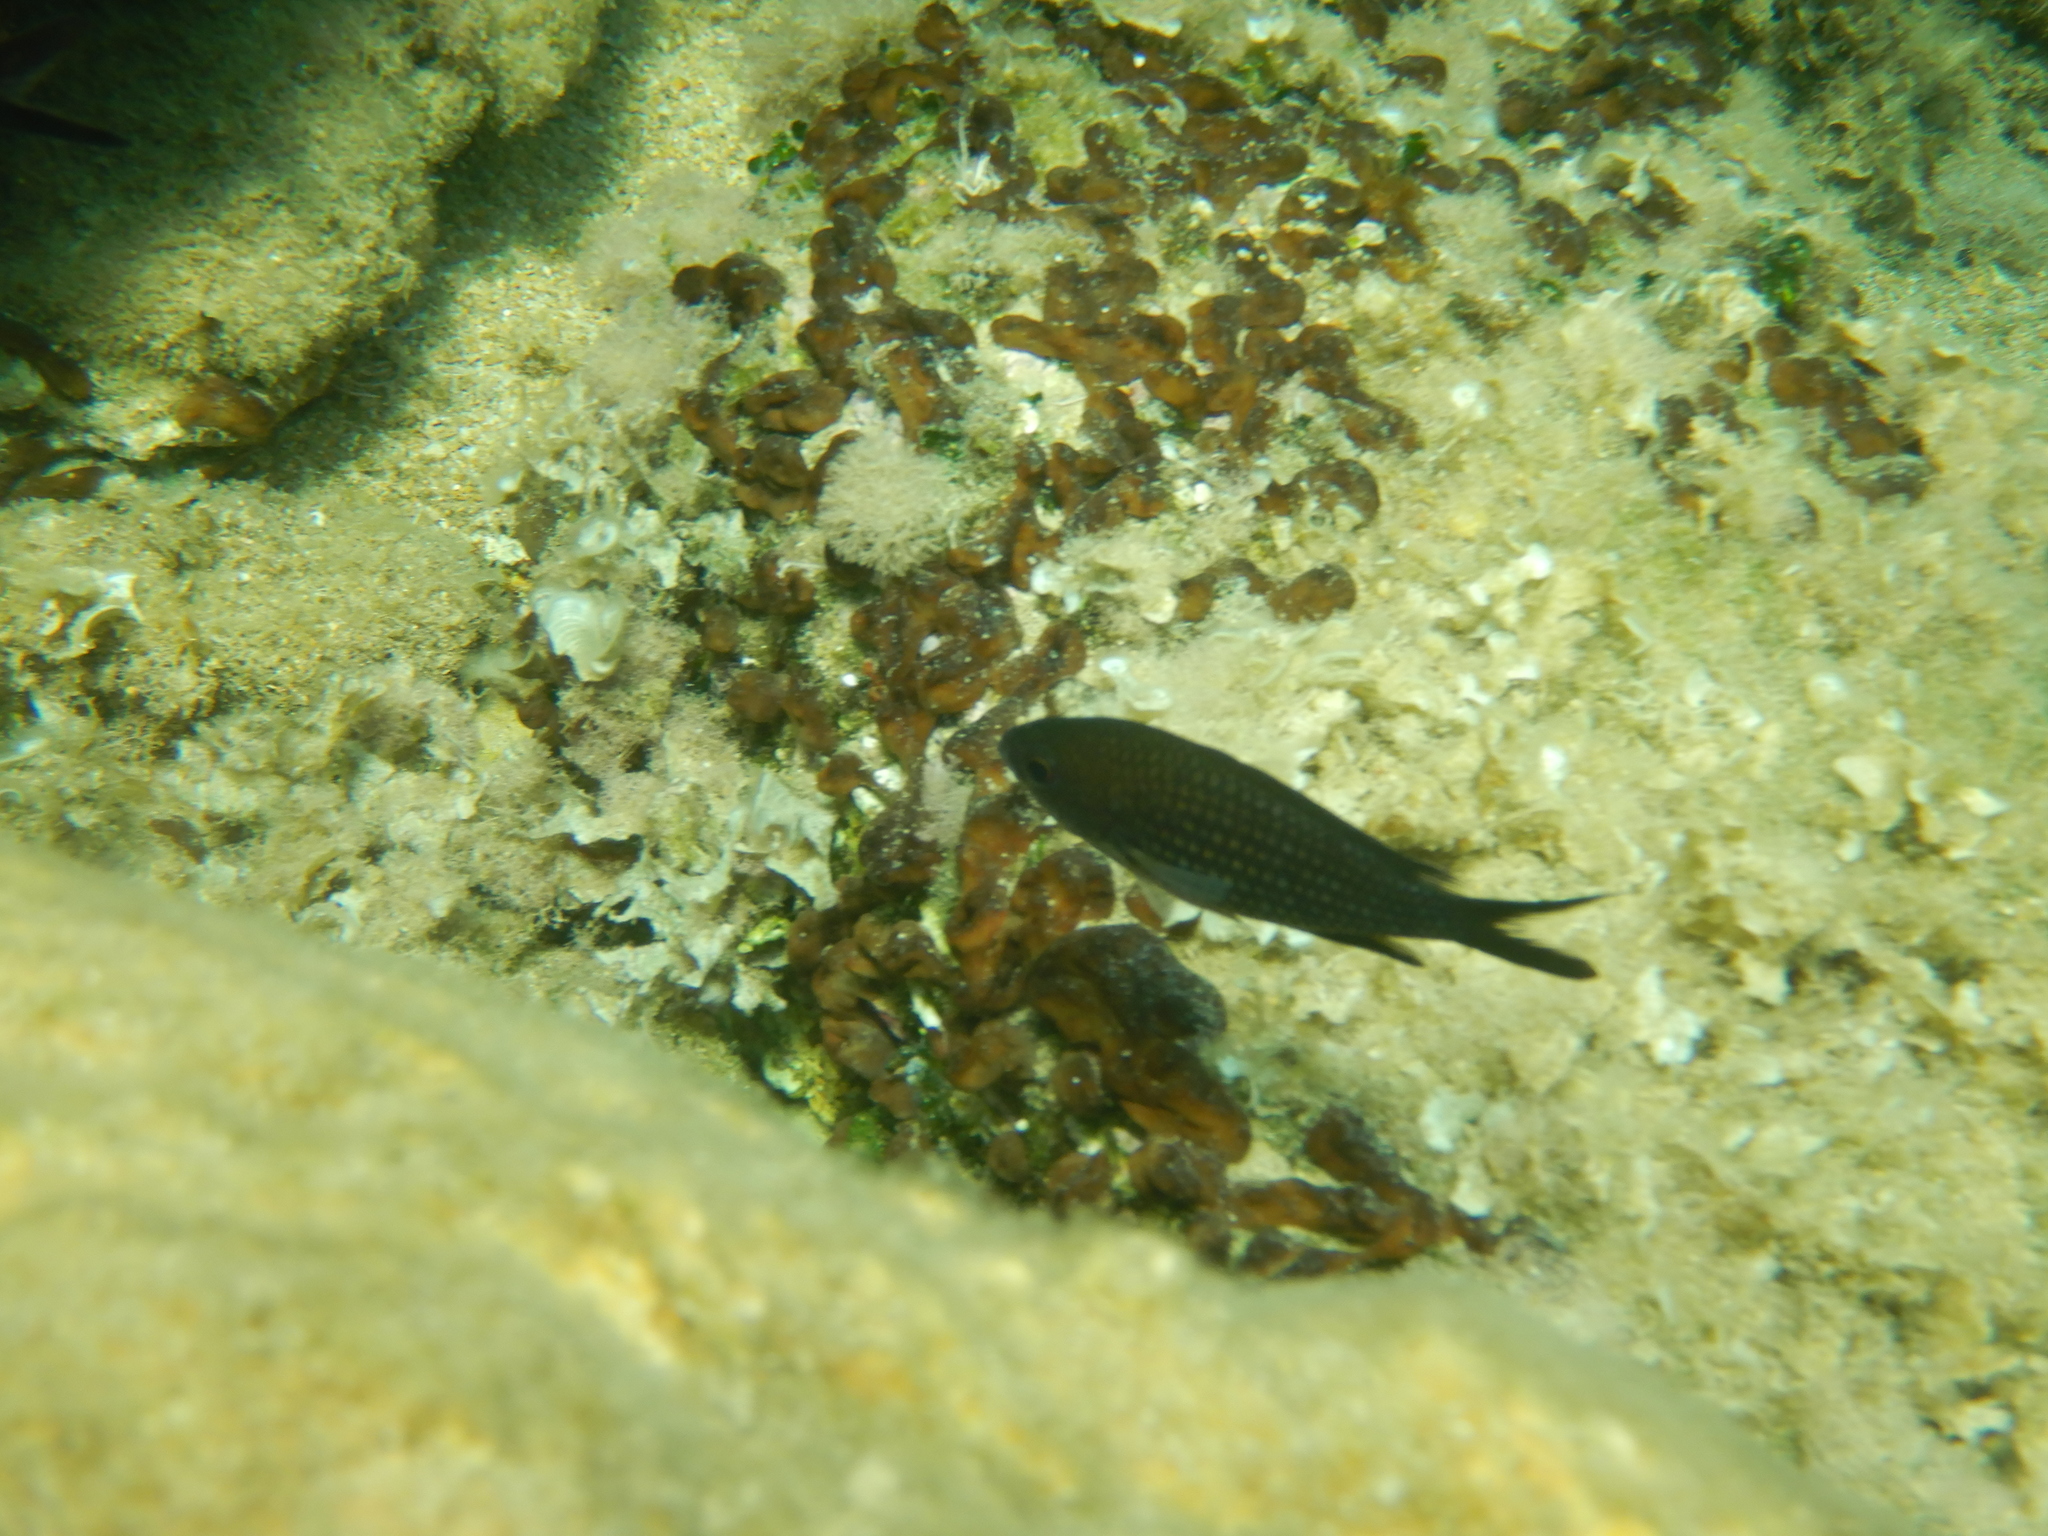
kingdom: Animalia
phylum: Chordata
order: Perciformes
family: Pomacentridae
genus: Chromis
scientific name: Chromis chromis
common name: Damselfish
